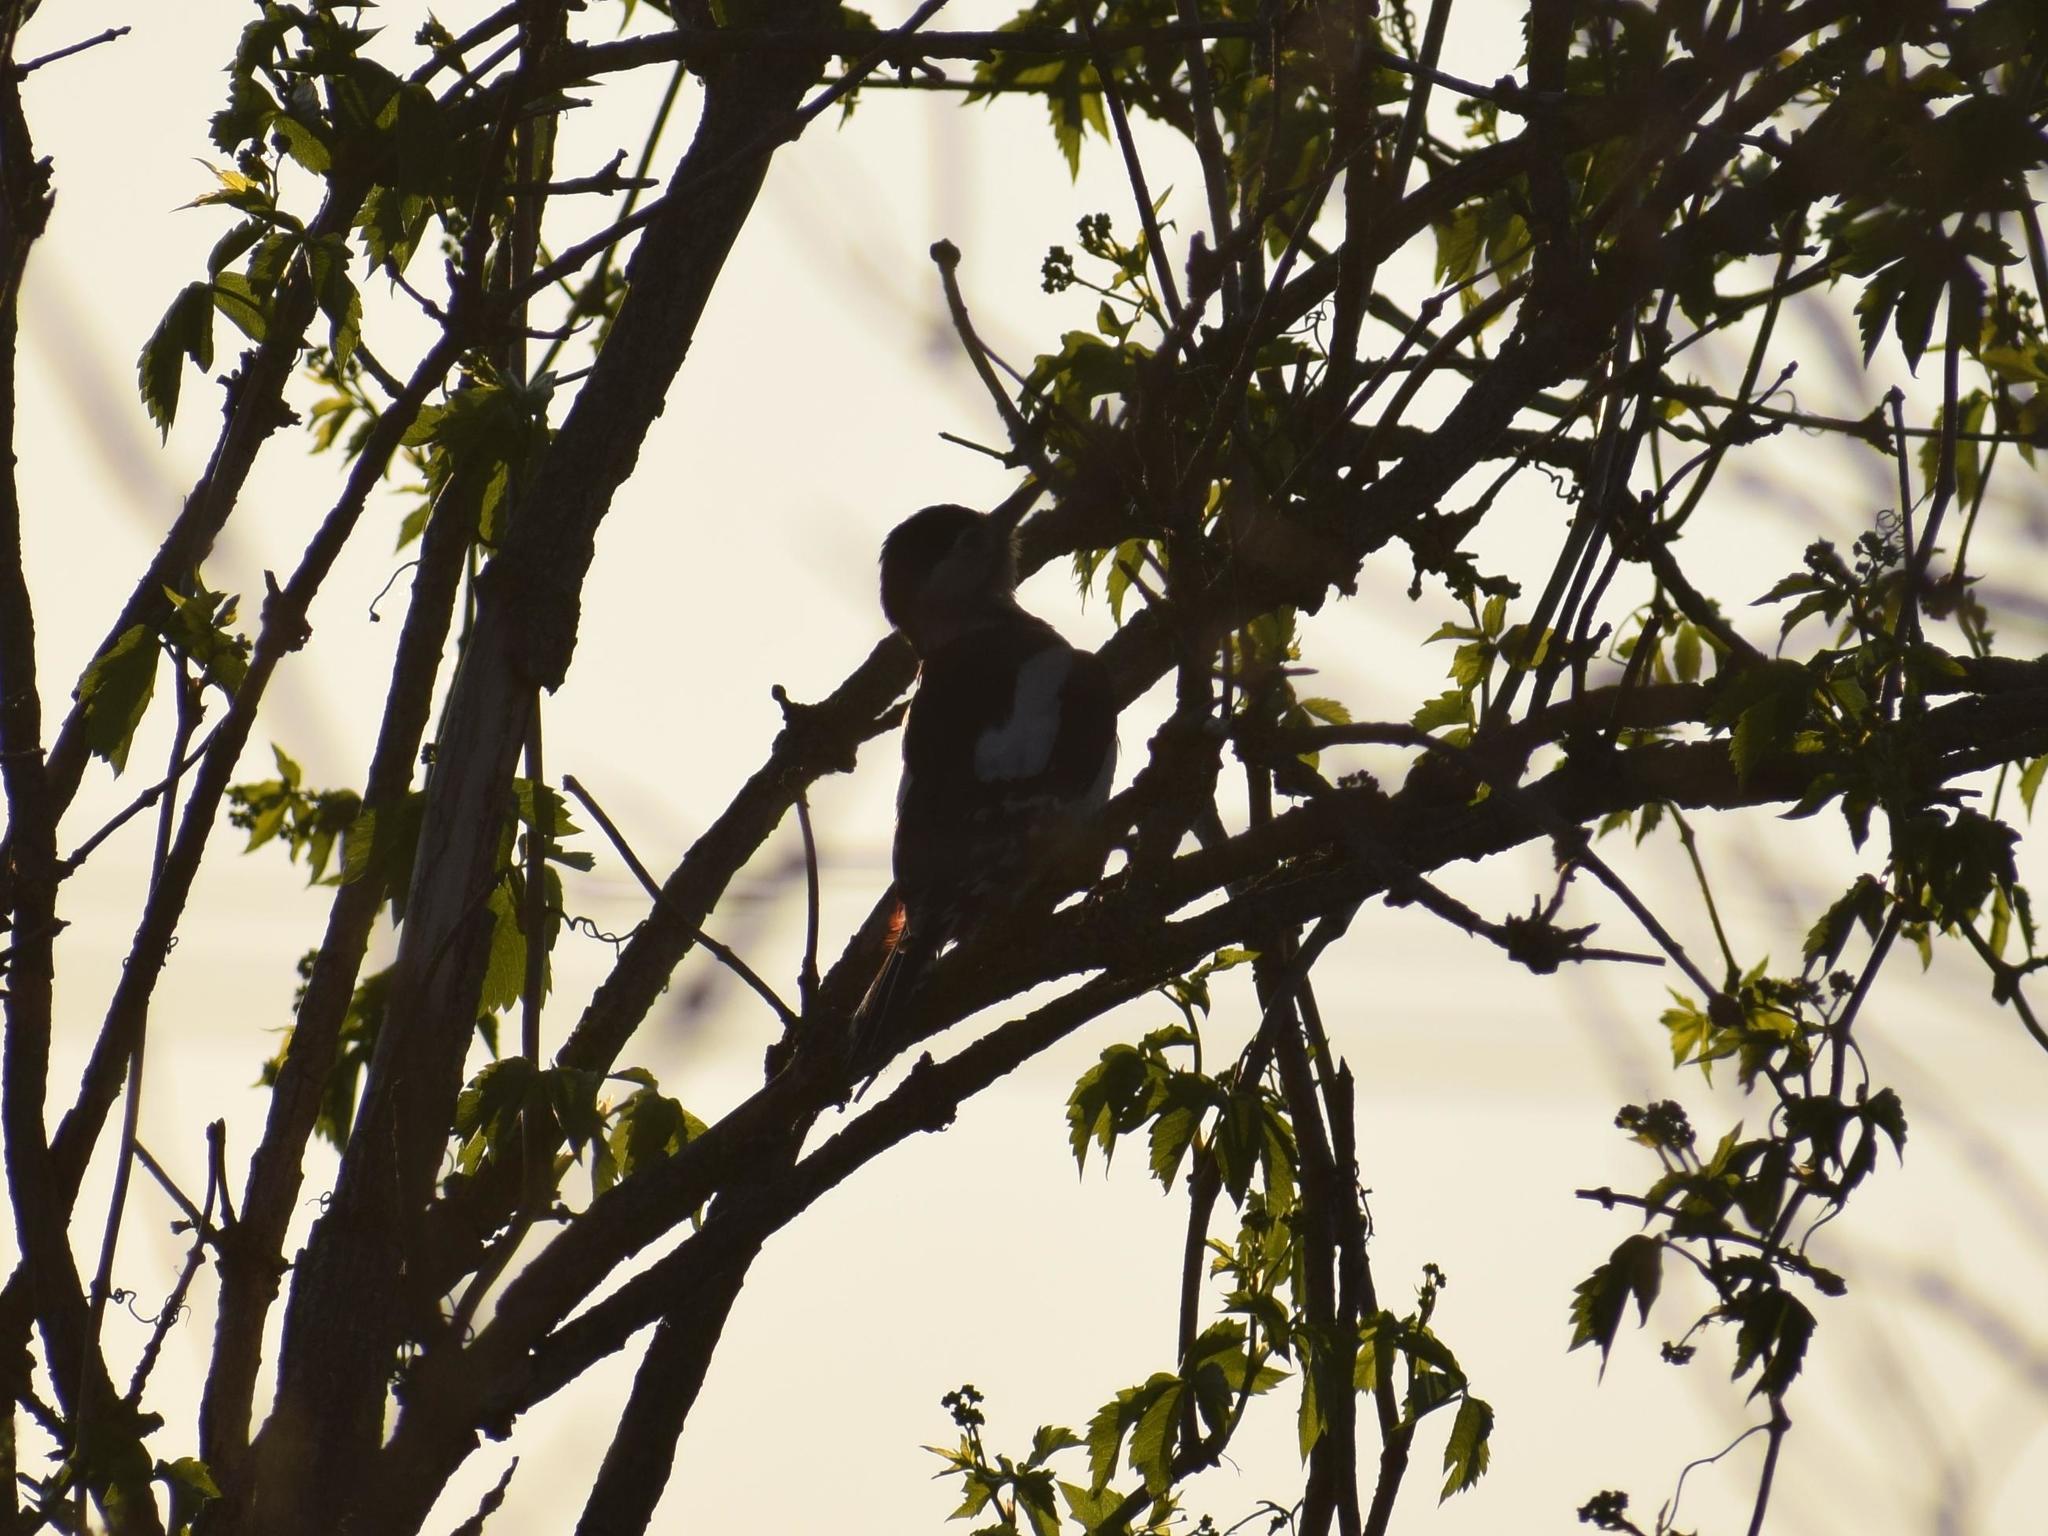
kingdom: Animalia
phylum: Chordata
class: Aves
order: Piciformes
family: Picidae
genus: Dendrocopos
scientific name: Dendrocopos major
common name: Great spotted woodpecker
